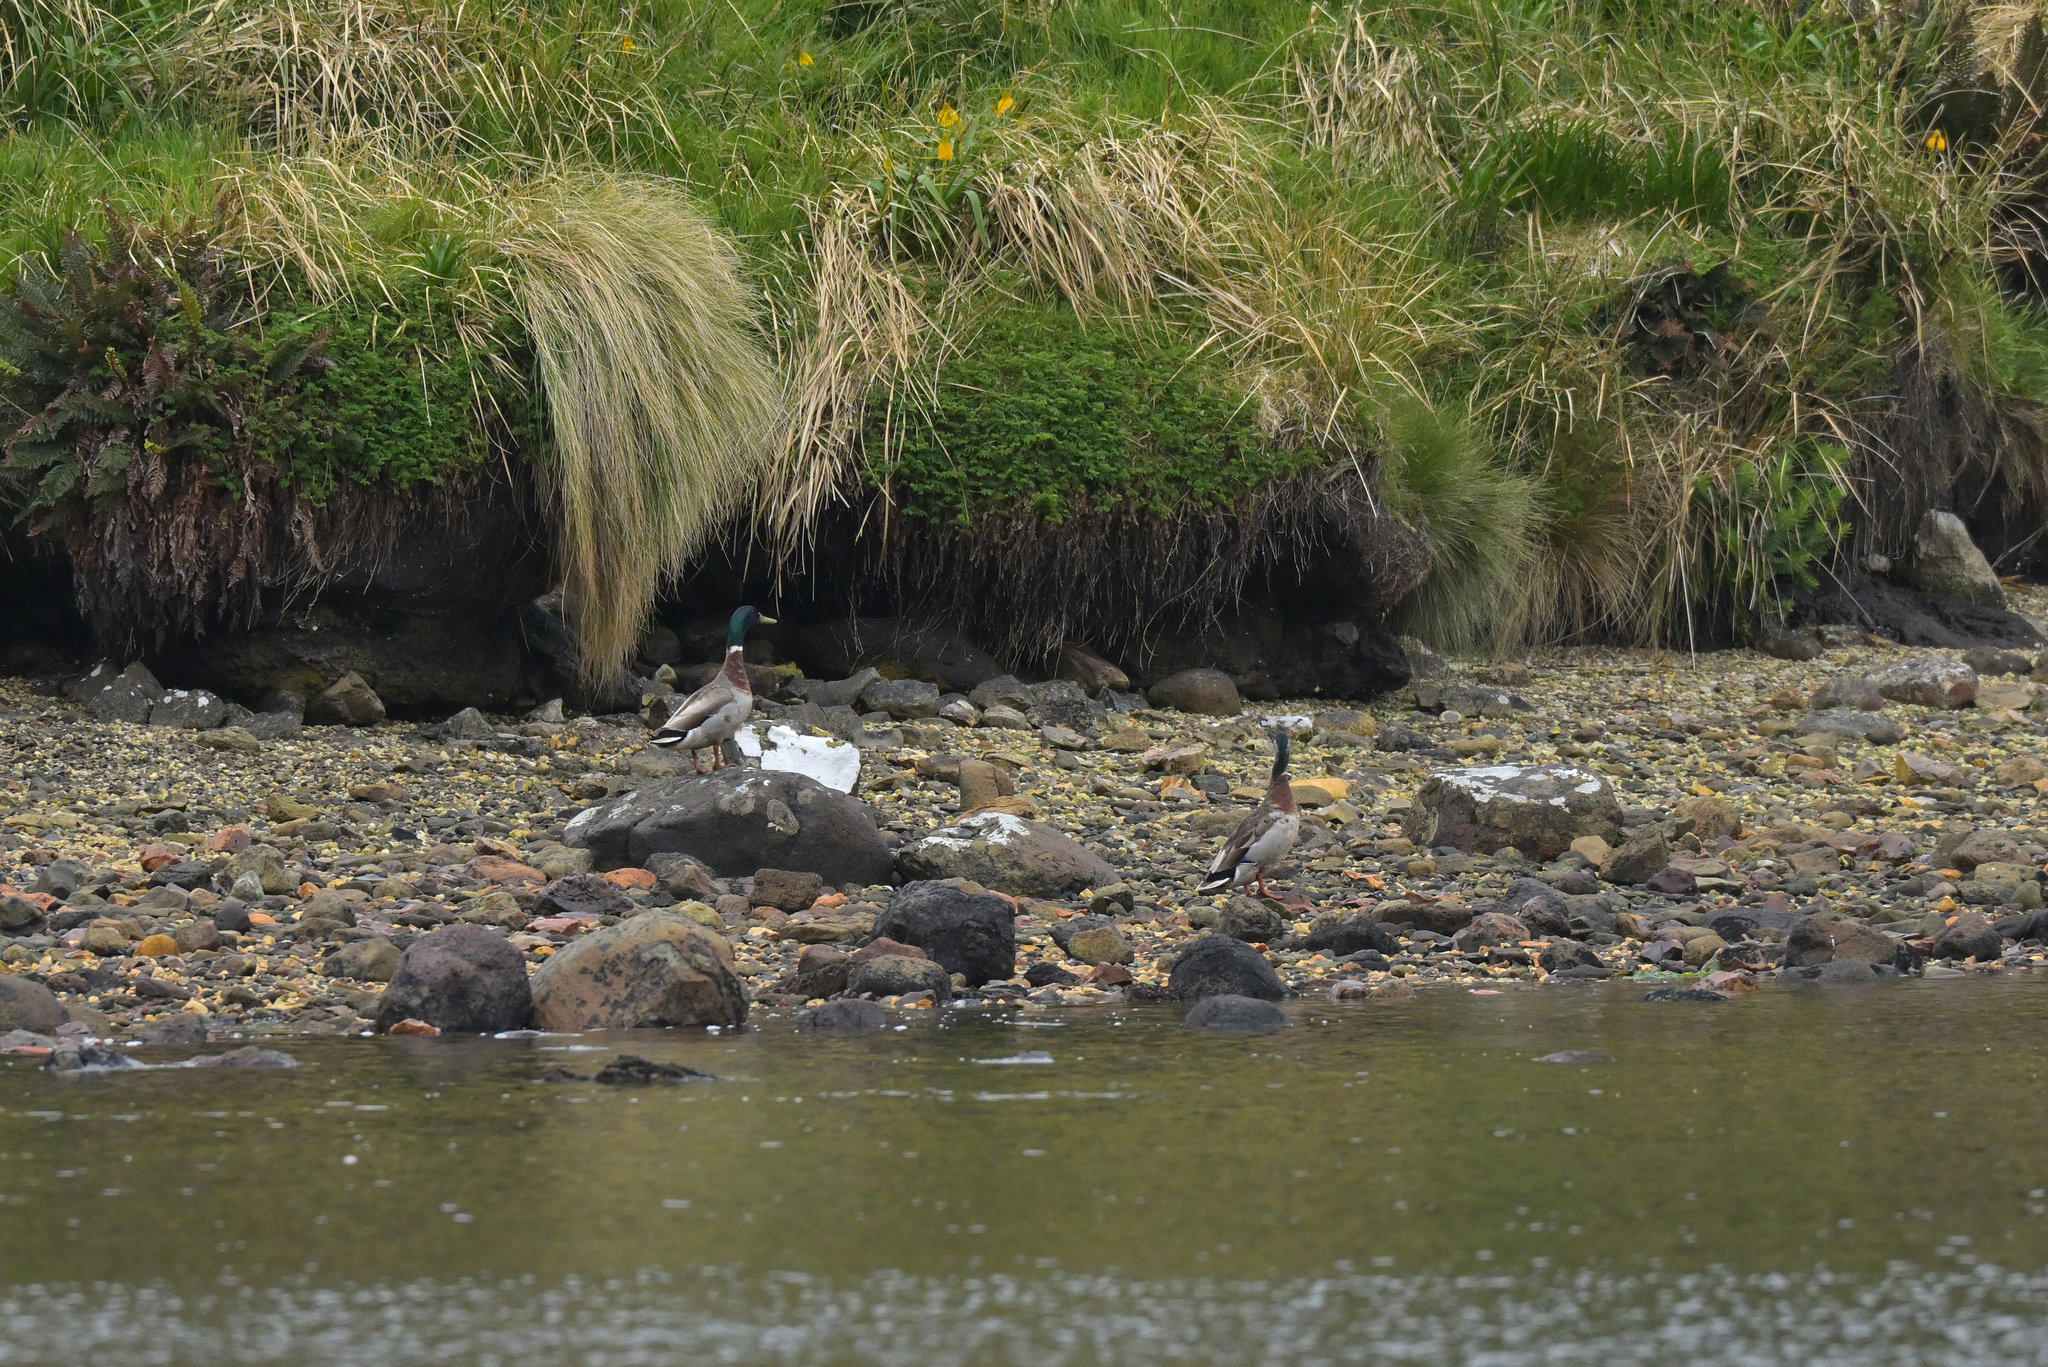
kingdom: Animalia
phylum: Chordata
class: Aves
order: Anseriformes
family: Anatidae
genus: Anas
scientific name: Anas platyrhynchos
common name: Mallard
